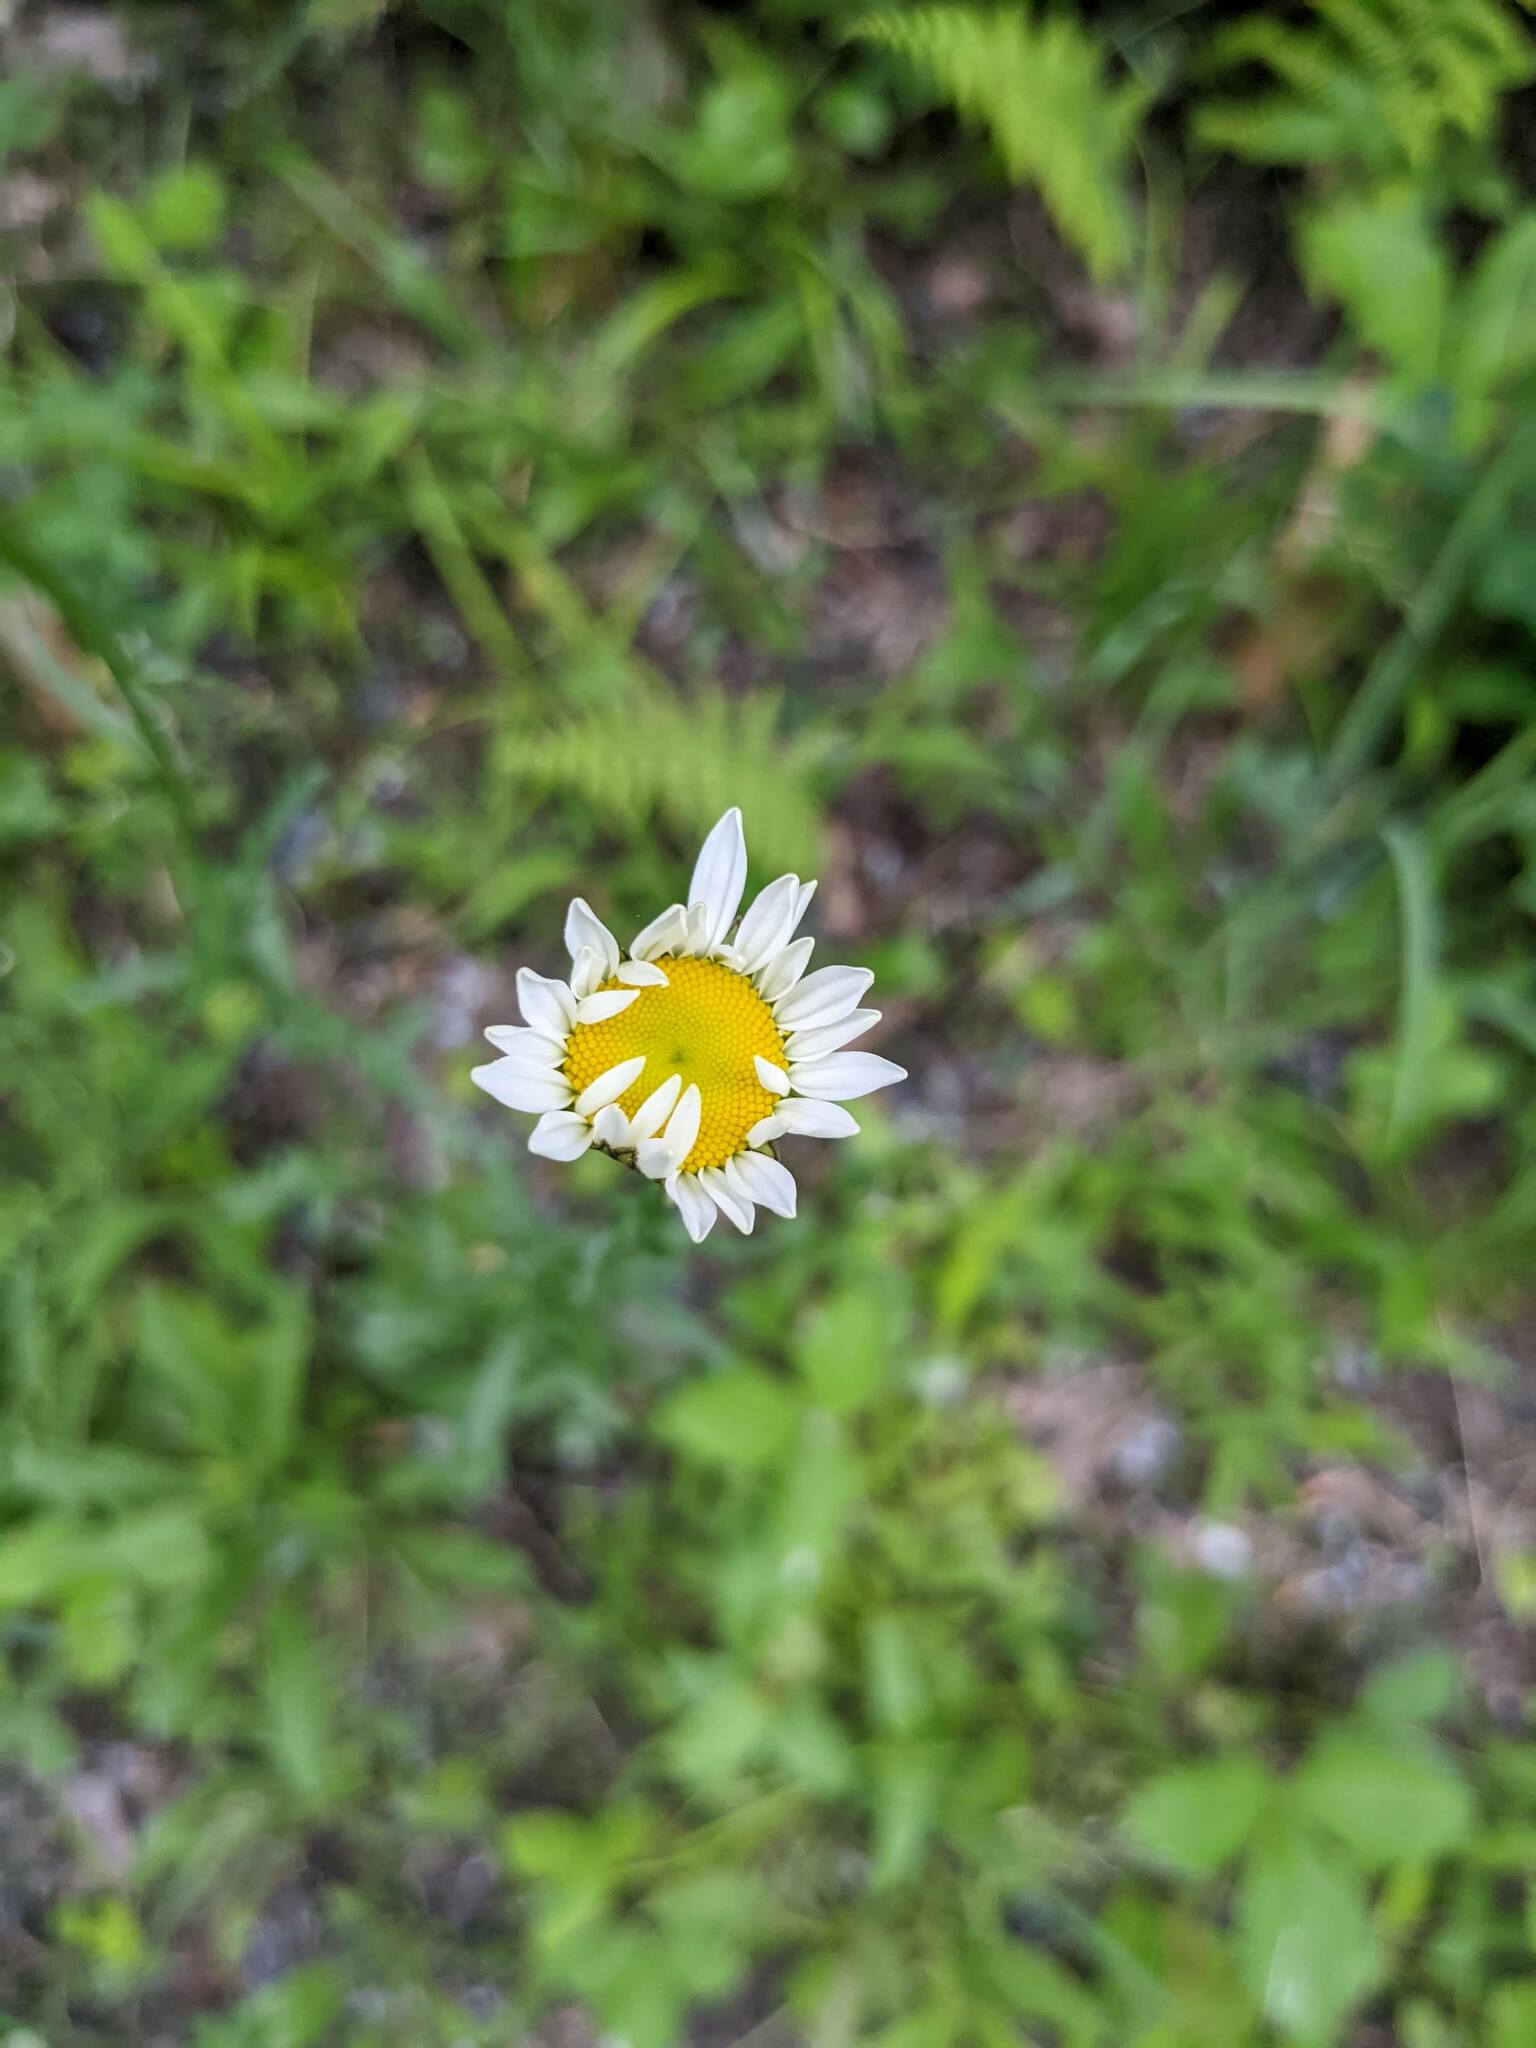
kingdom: Plantae
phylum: Tracheophyta
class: Magnoliopsida
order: Asterales
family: Asteraceae
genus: Leucanthemum
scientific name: Leucanthemum vulgare
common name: Oxeye daisy
